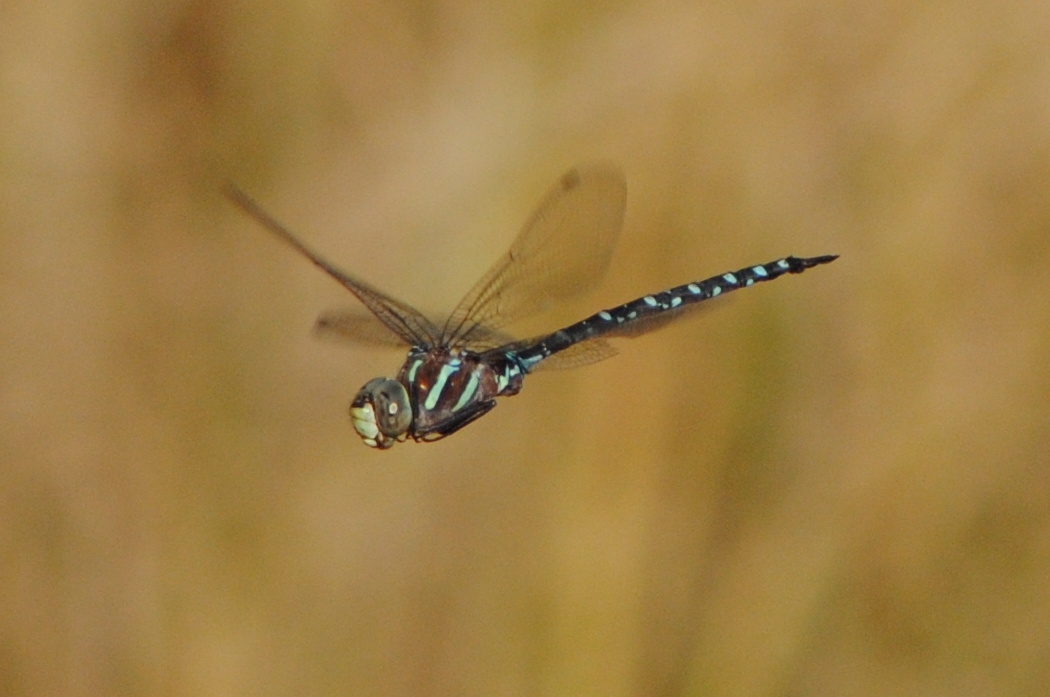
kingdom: Animalia
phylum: Arthropoda
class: Insecta
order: Odonata
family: Aeshnidae
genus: Aeshna
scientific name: Aeshna tuberculifera
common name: Aeschne à tubercules
